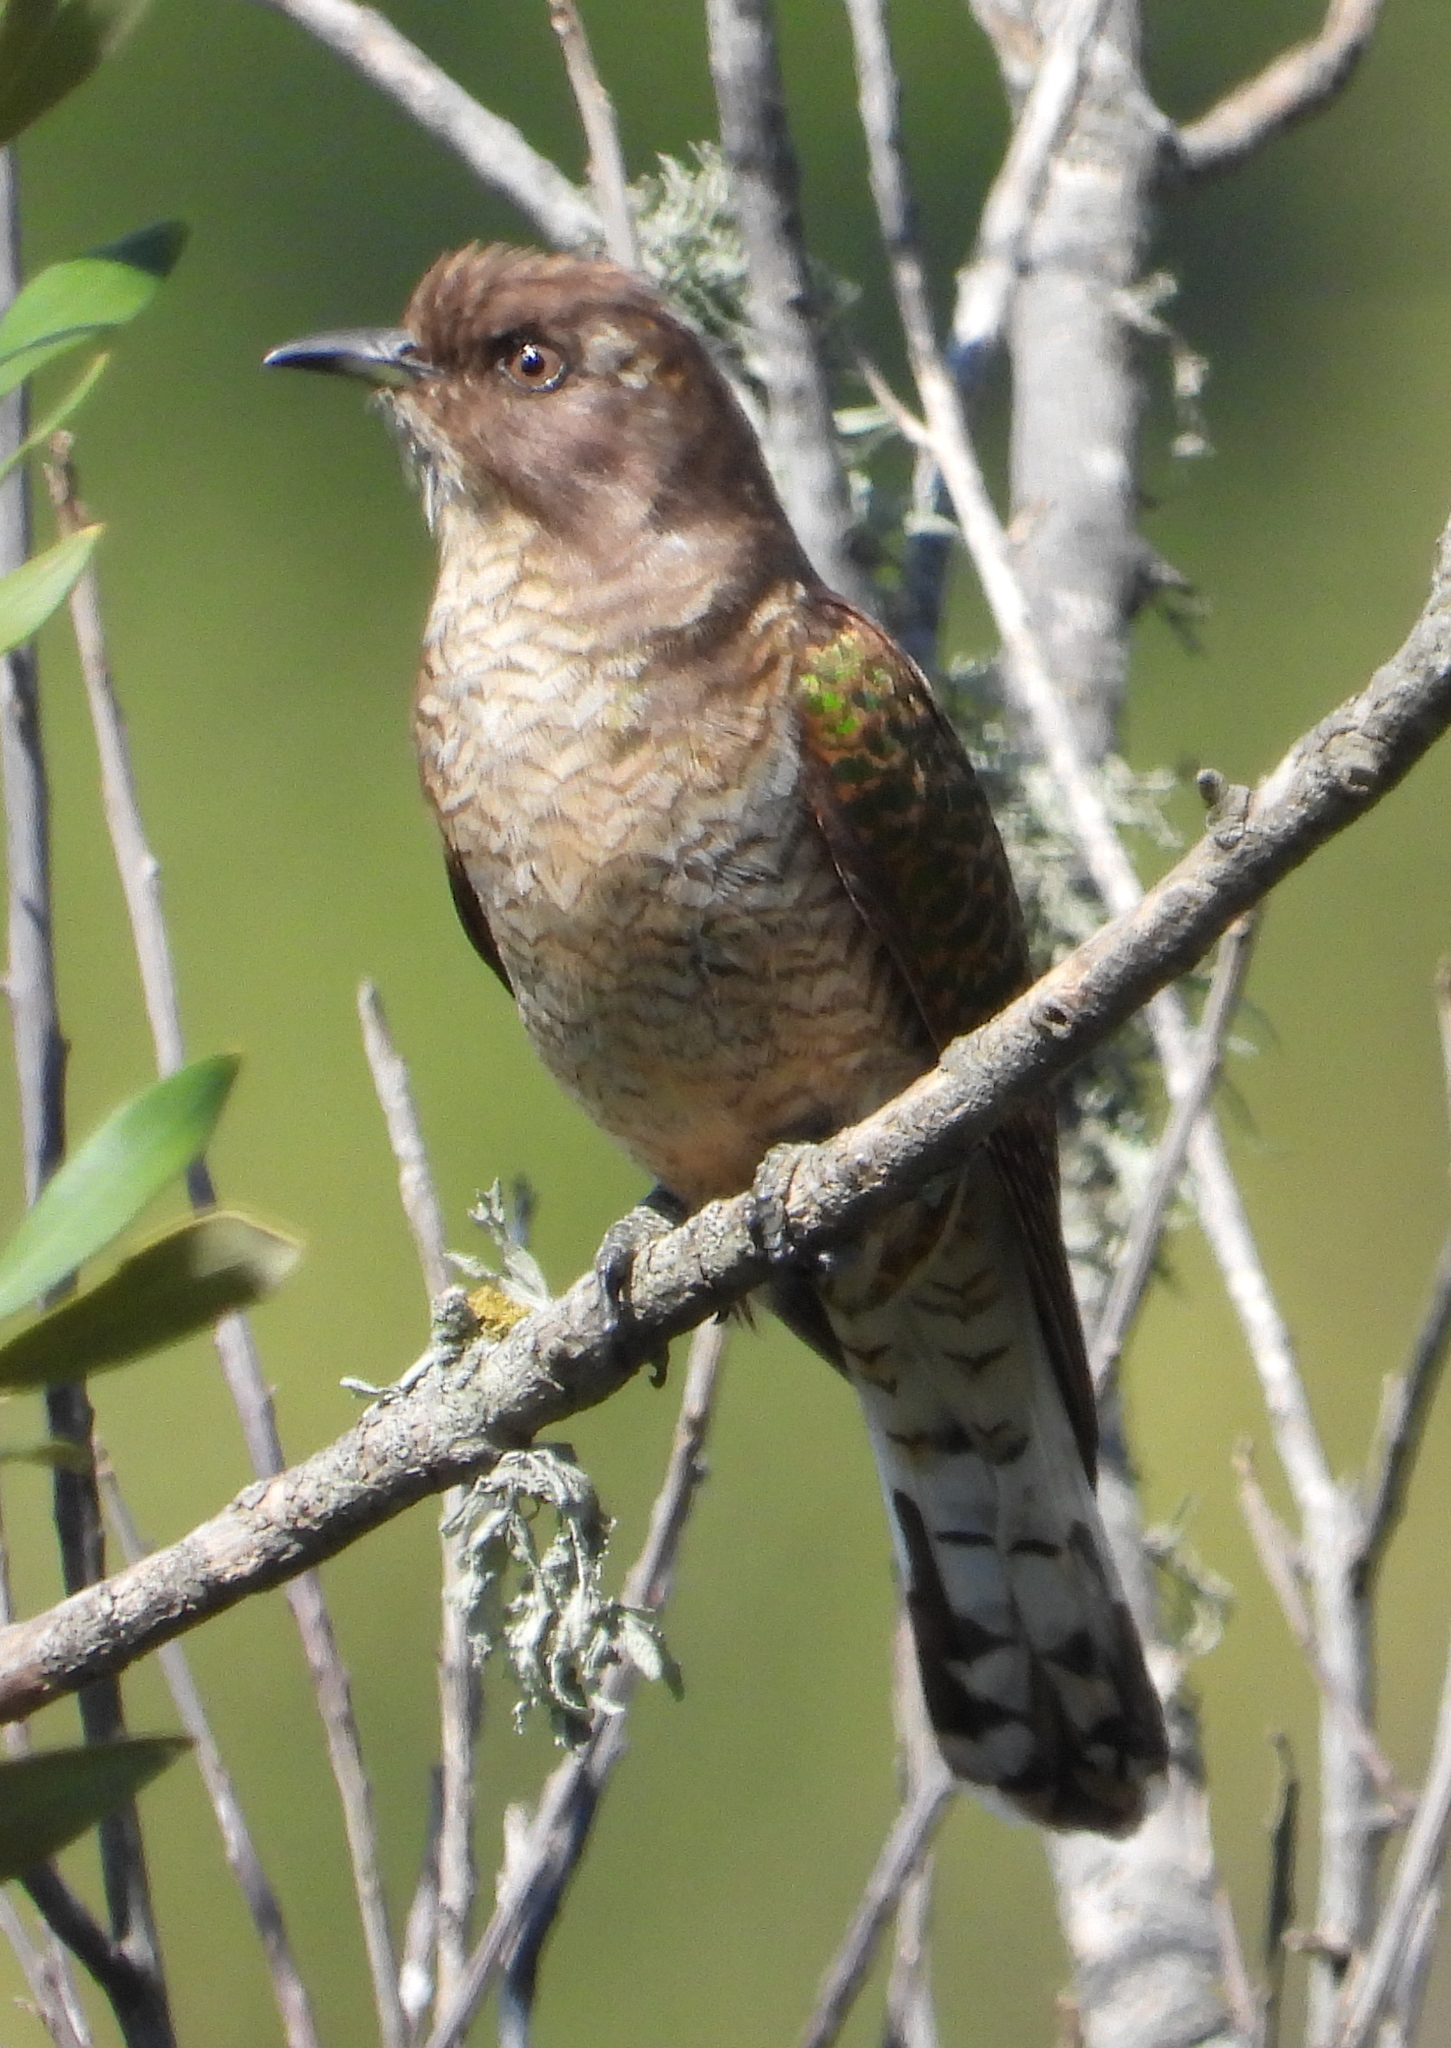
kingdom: Animalia
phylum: Chordata
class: Aves
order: Cuculiformes
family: Cuculidae
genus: Chrysococcyx
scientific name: Chrysococcyx klaas
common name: Klaas's cuckoo
